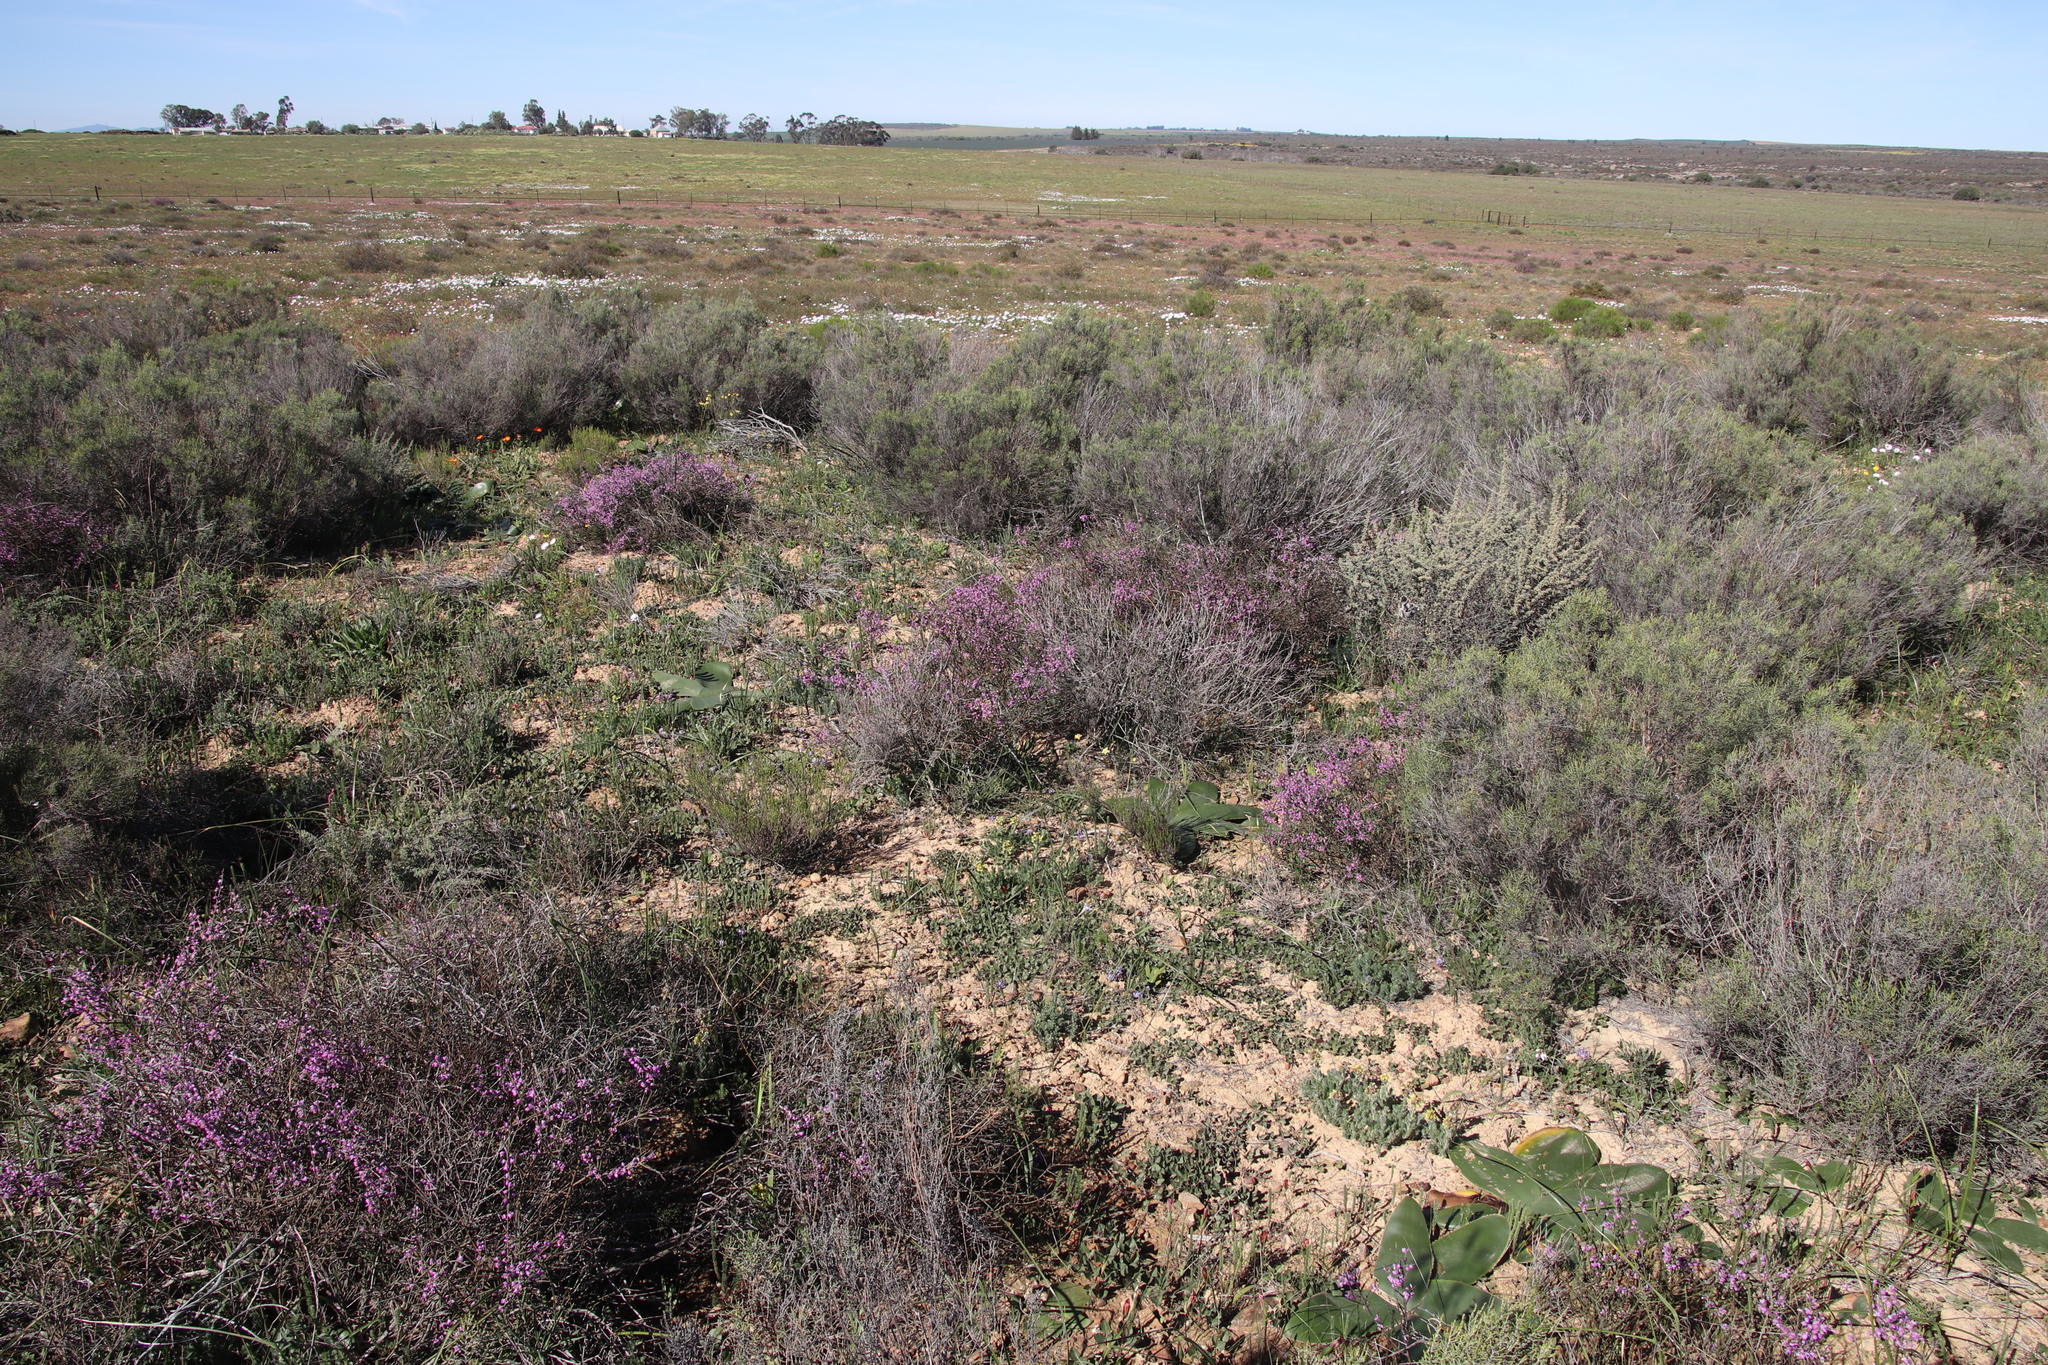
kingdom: Plantae
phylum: Tracheophyta
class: Magnoliopsida
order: Fabales
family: Polygalaceae
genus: Muraltia
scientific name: Muraltia spinosa
